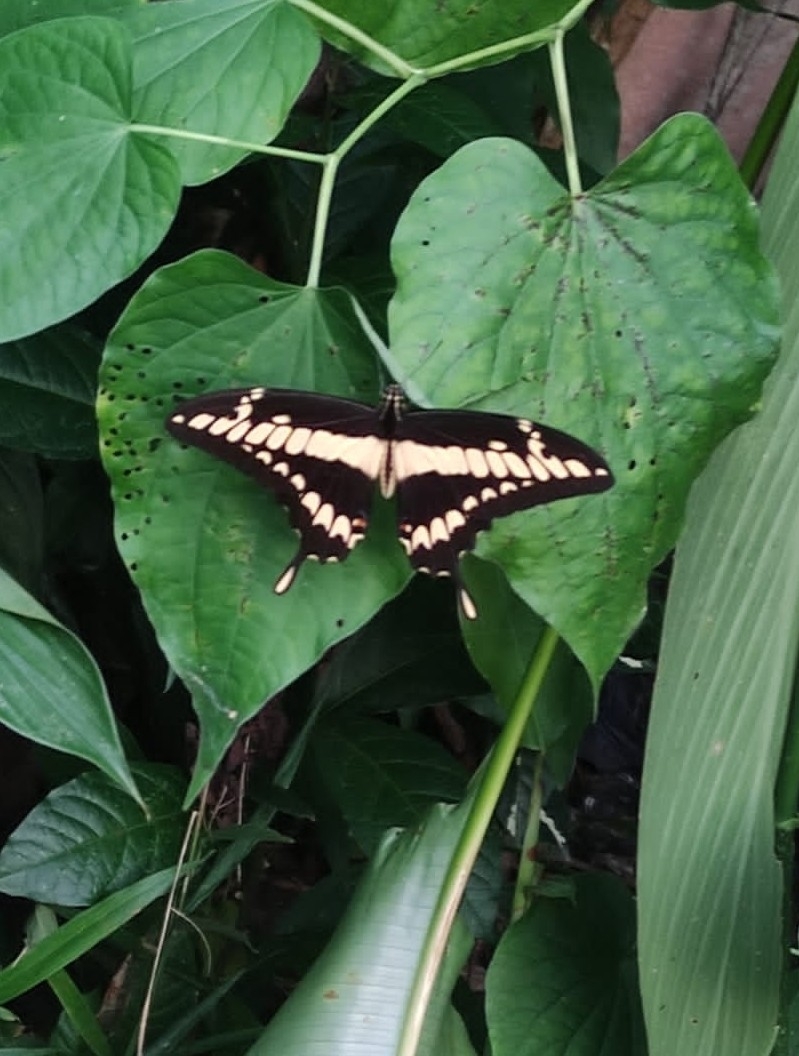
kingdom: Animalia
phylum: Arthropoda
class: Insecta
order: Lepidoptera
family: Papilionidae
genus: Papilio
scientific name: Papilio thoas
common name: King swallowtail
